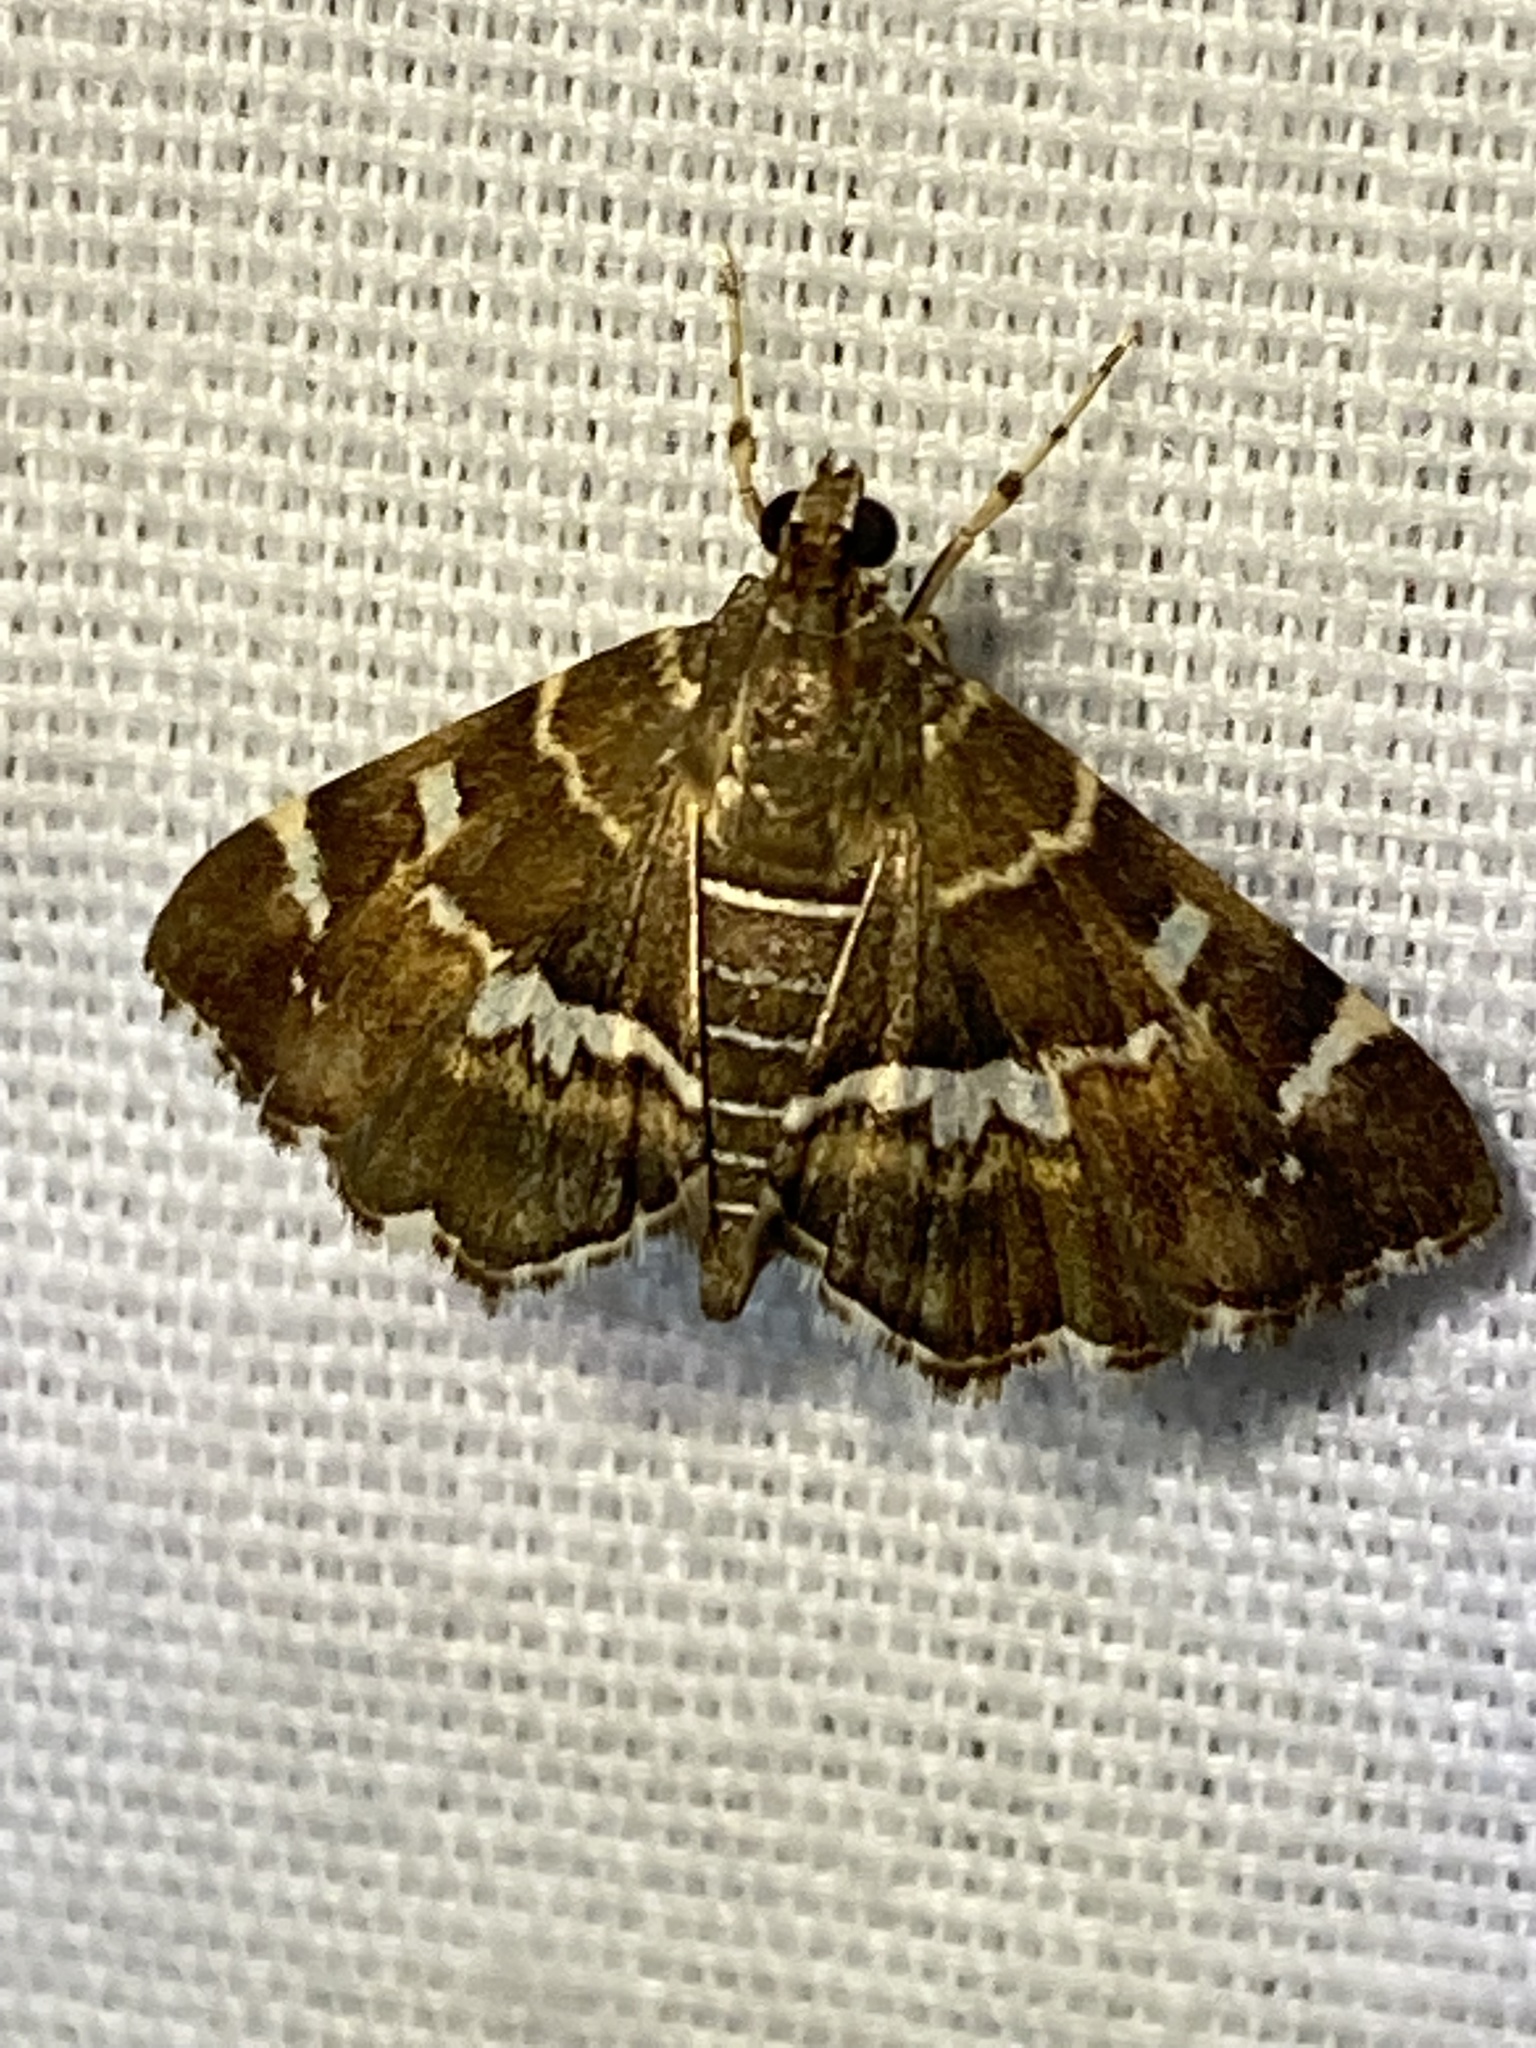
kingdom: Animalia
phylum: Arthropoda
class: Insecta
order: Lepidoptera
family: Crambidae
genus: Hymenia
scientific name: Hymenia perspectalis
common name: Spotted beet webworm
